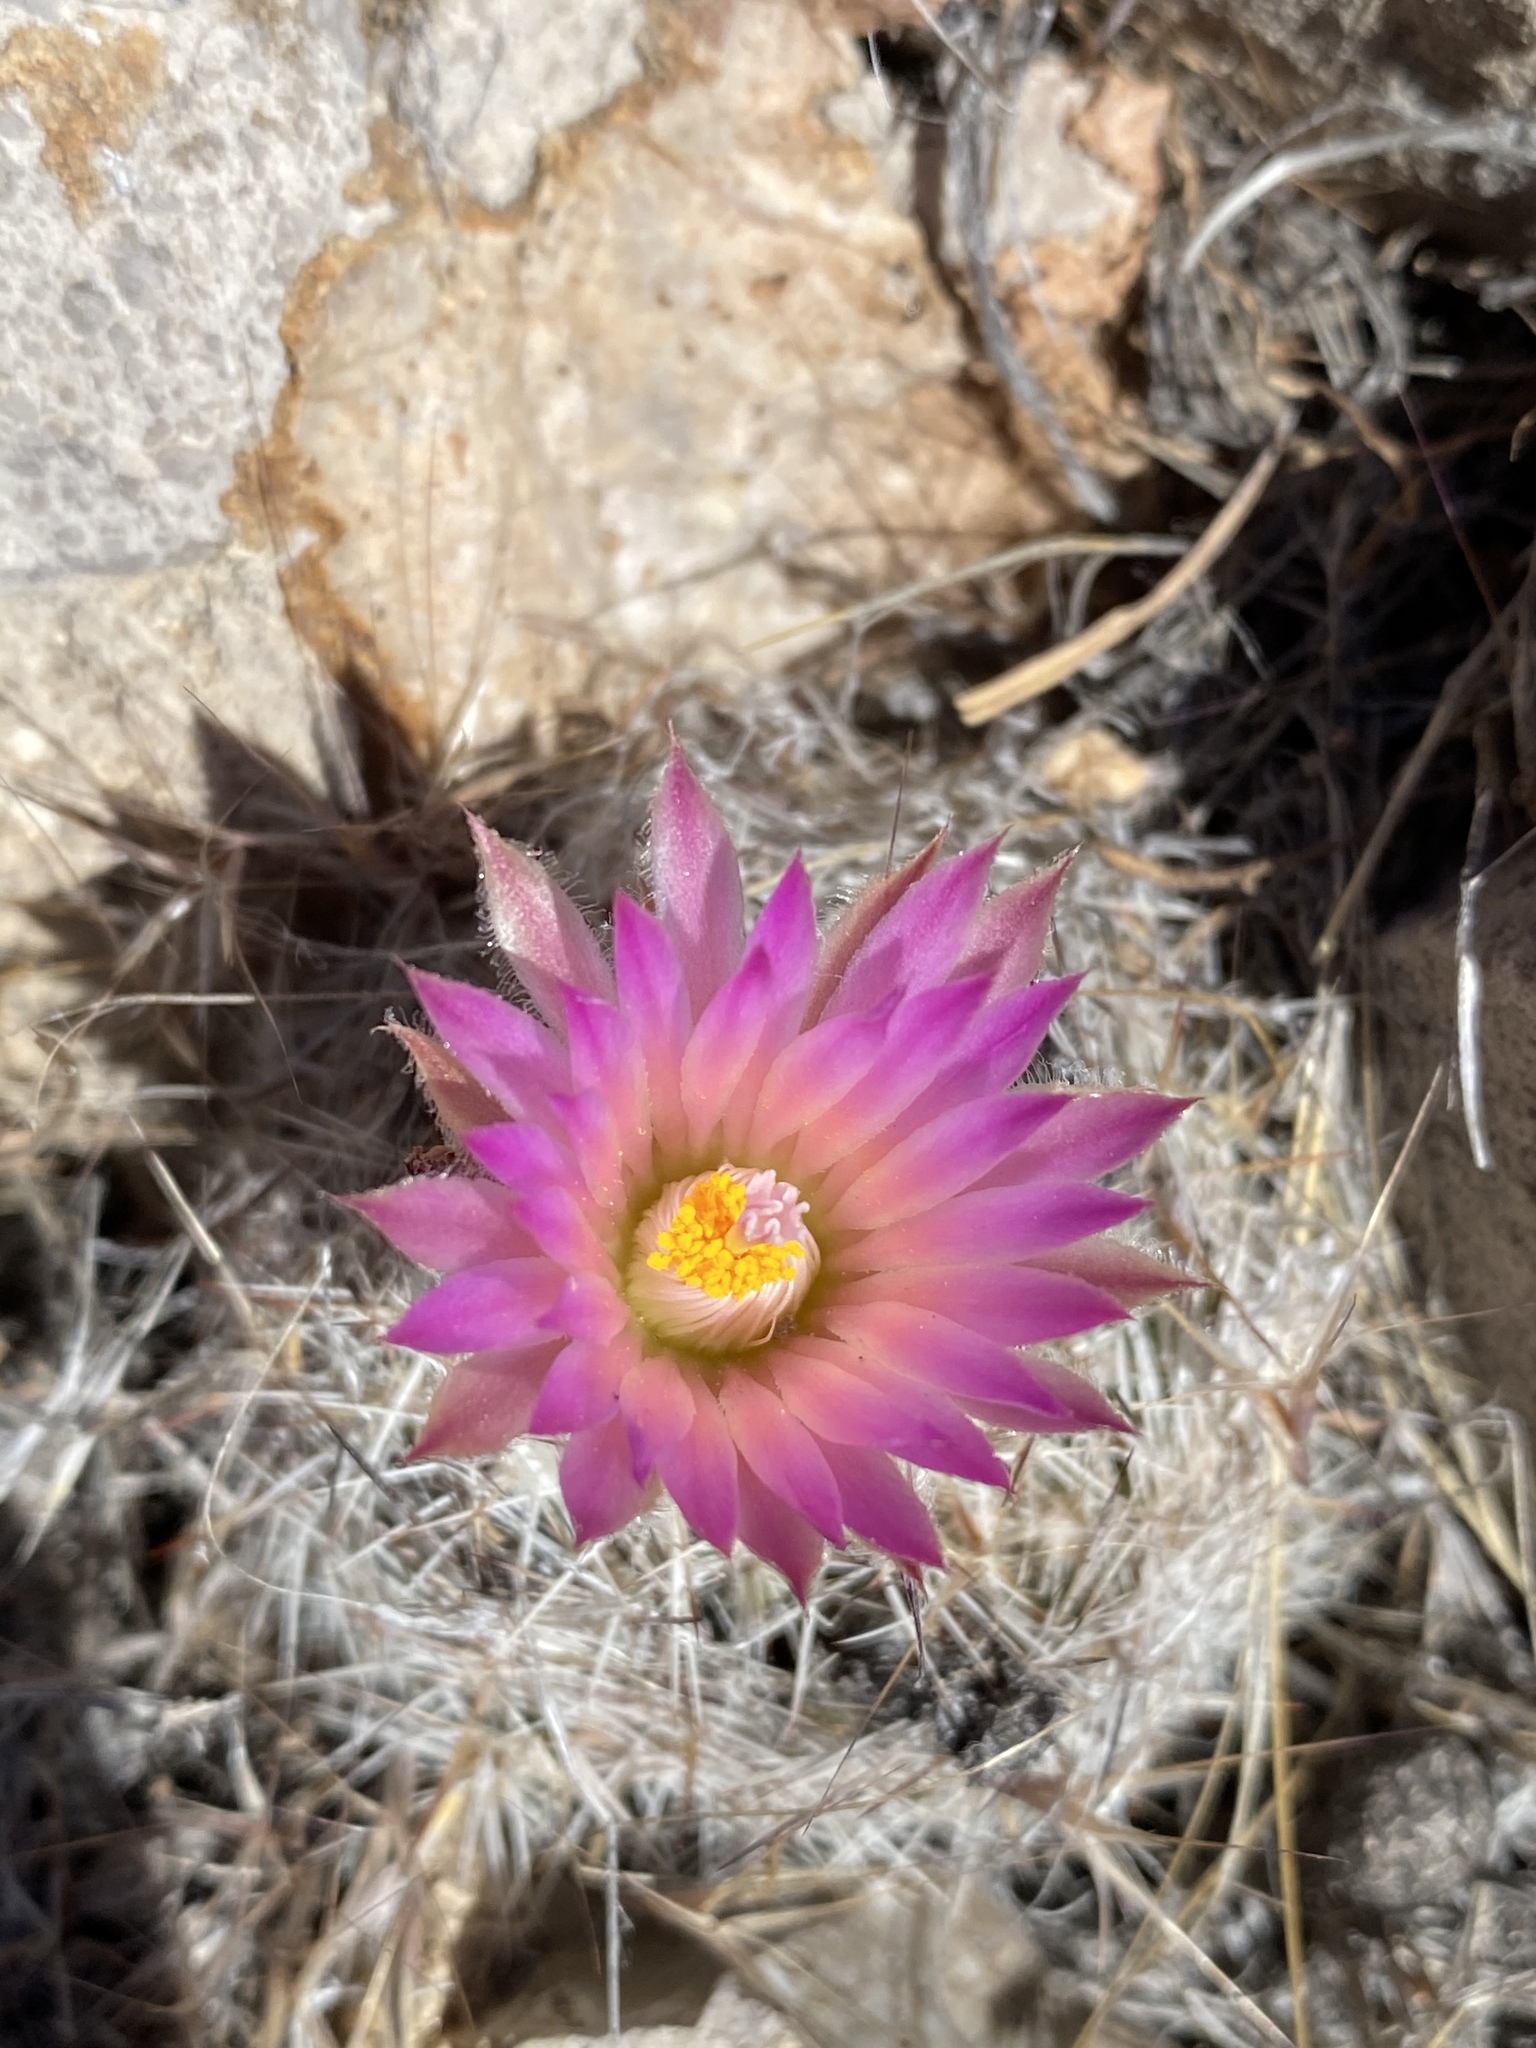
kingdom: Plantae
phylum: Tracheophyta
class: Magnoliopsida
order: Caryophyllales
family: Cactaceae
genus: Pelecyphora
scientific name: Pelecyphora vivipara
